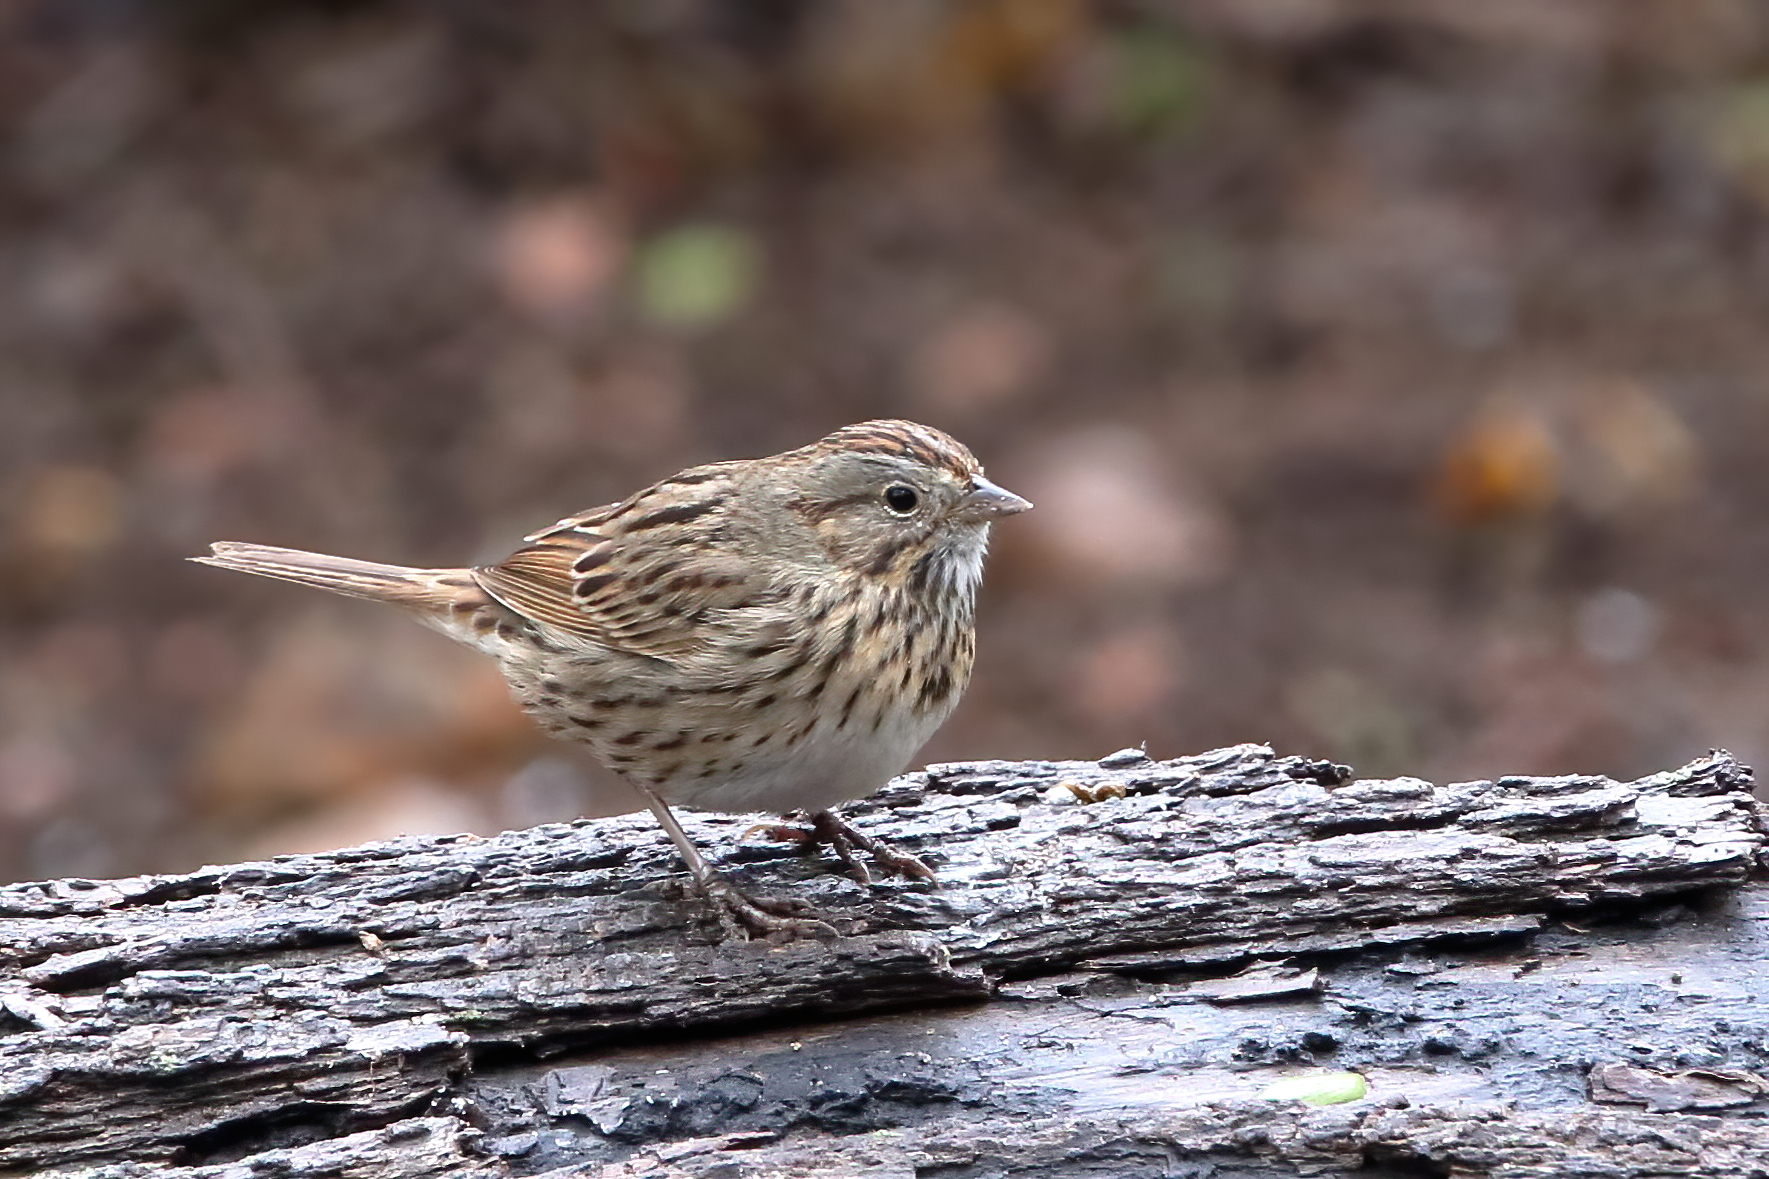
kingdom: Animalia
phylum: Chordata
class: Aves
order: Passeriformes
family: Passerellidae
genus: Melospiza
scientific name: Melospiza lincolnii
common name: Lincoln's sparrow
